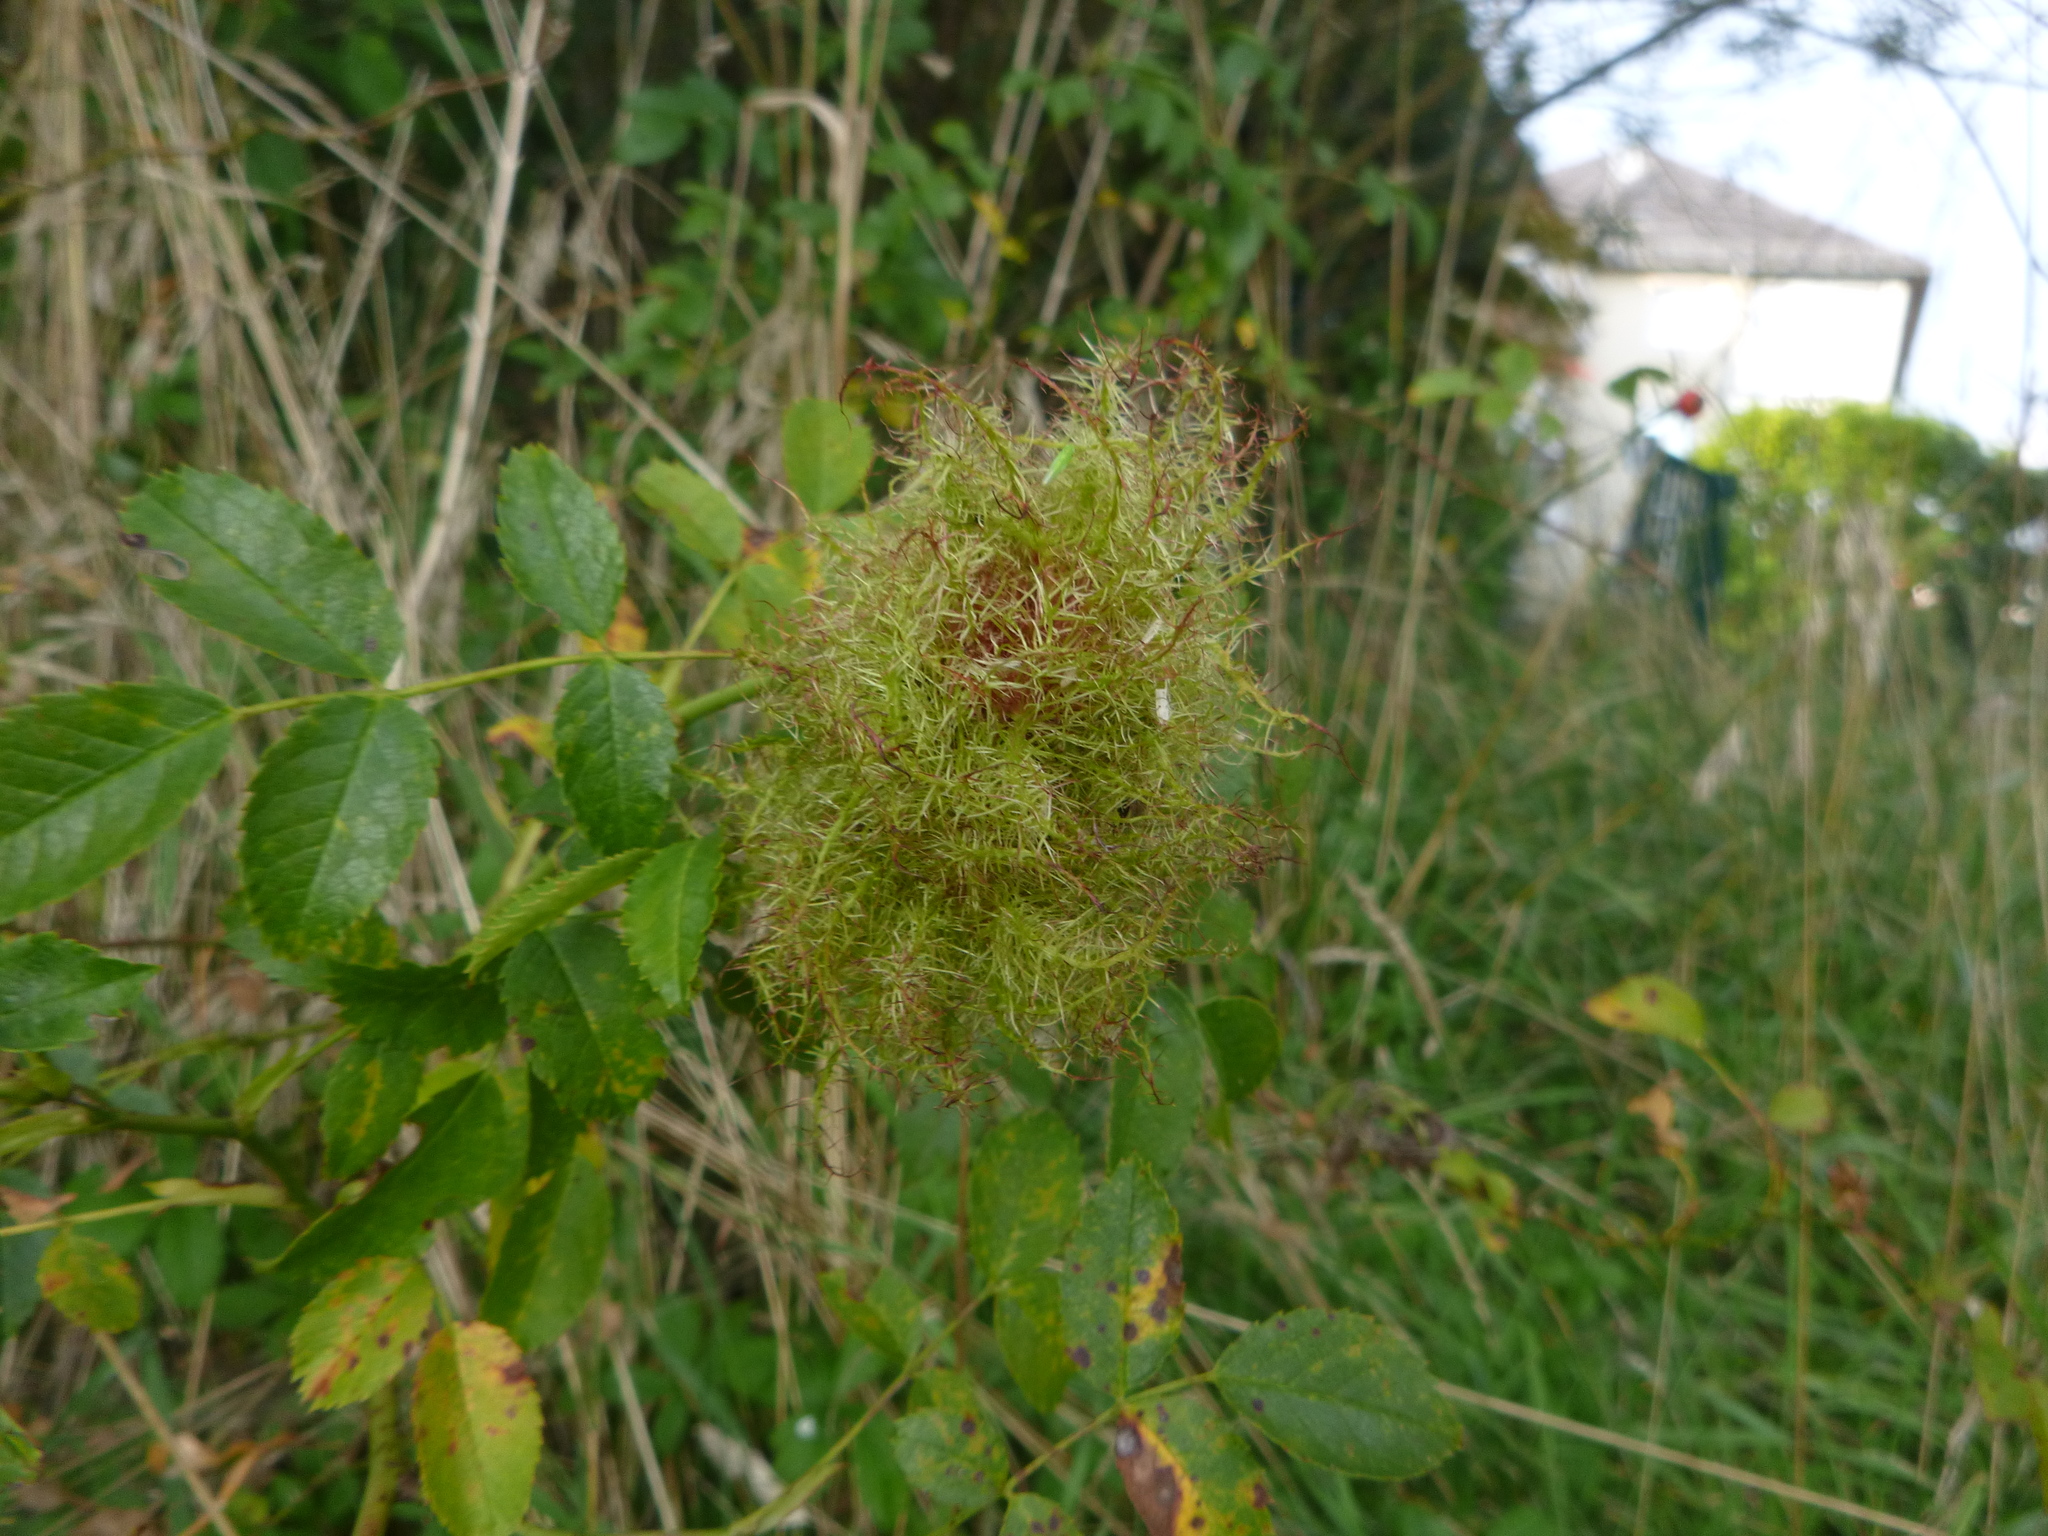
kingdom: Animalia
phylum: Arthropoda
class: Insecta
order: Hymenoptera
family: Cynipidae
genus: Diplolepis
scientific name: Diplolepis rosae
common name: Bedeguar gall
